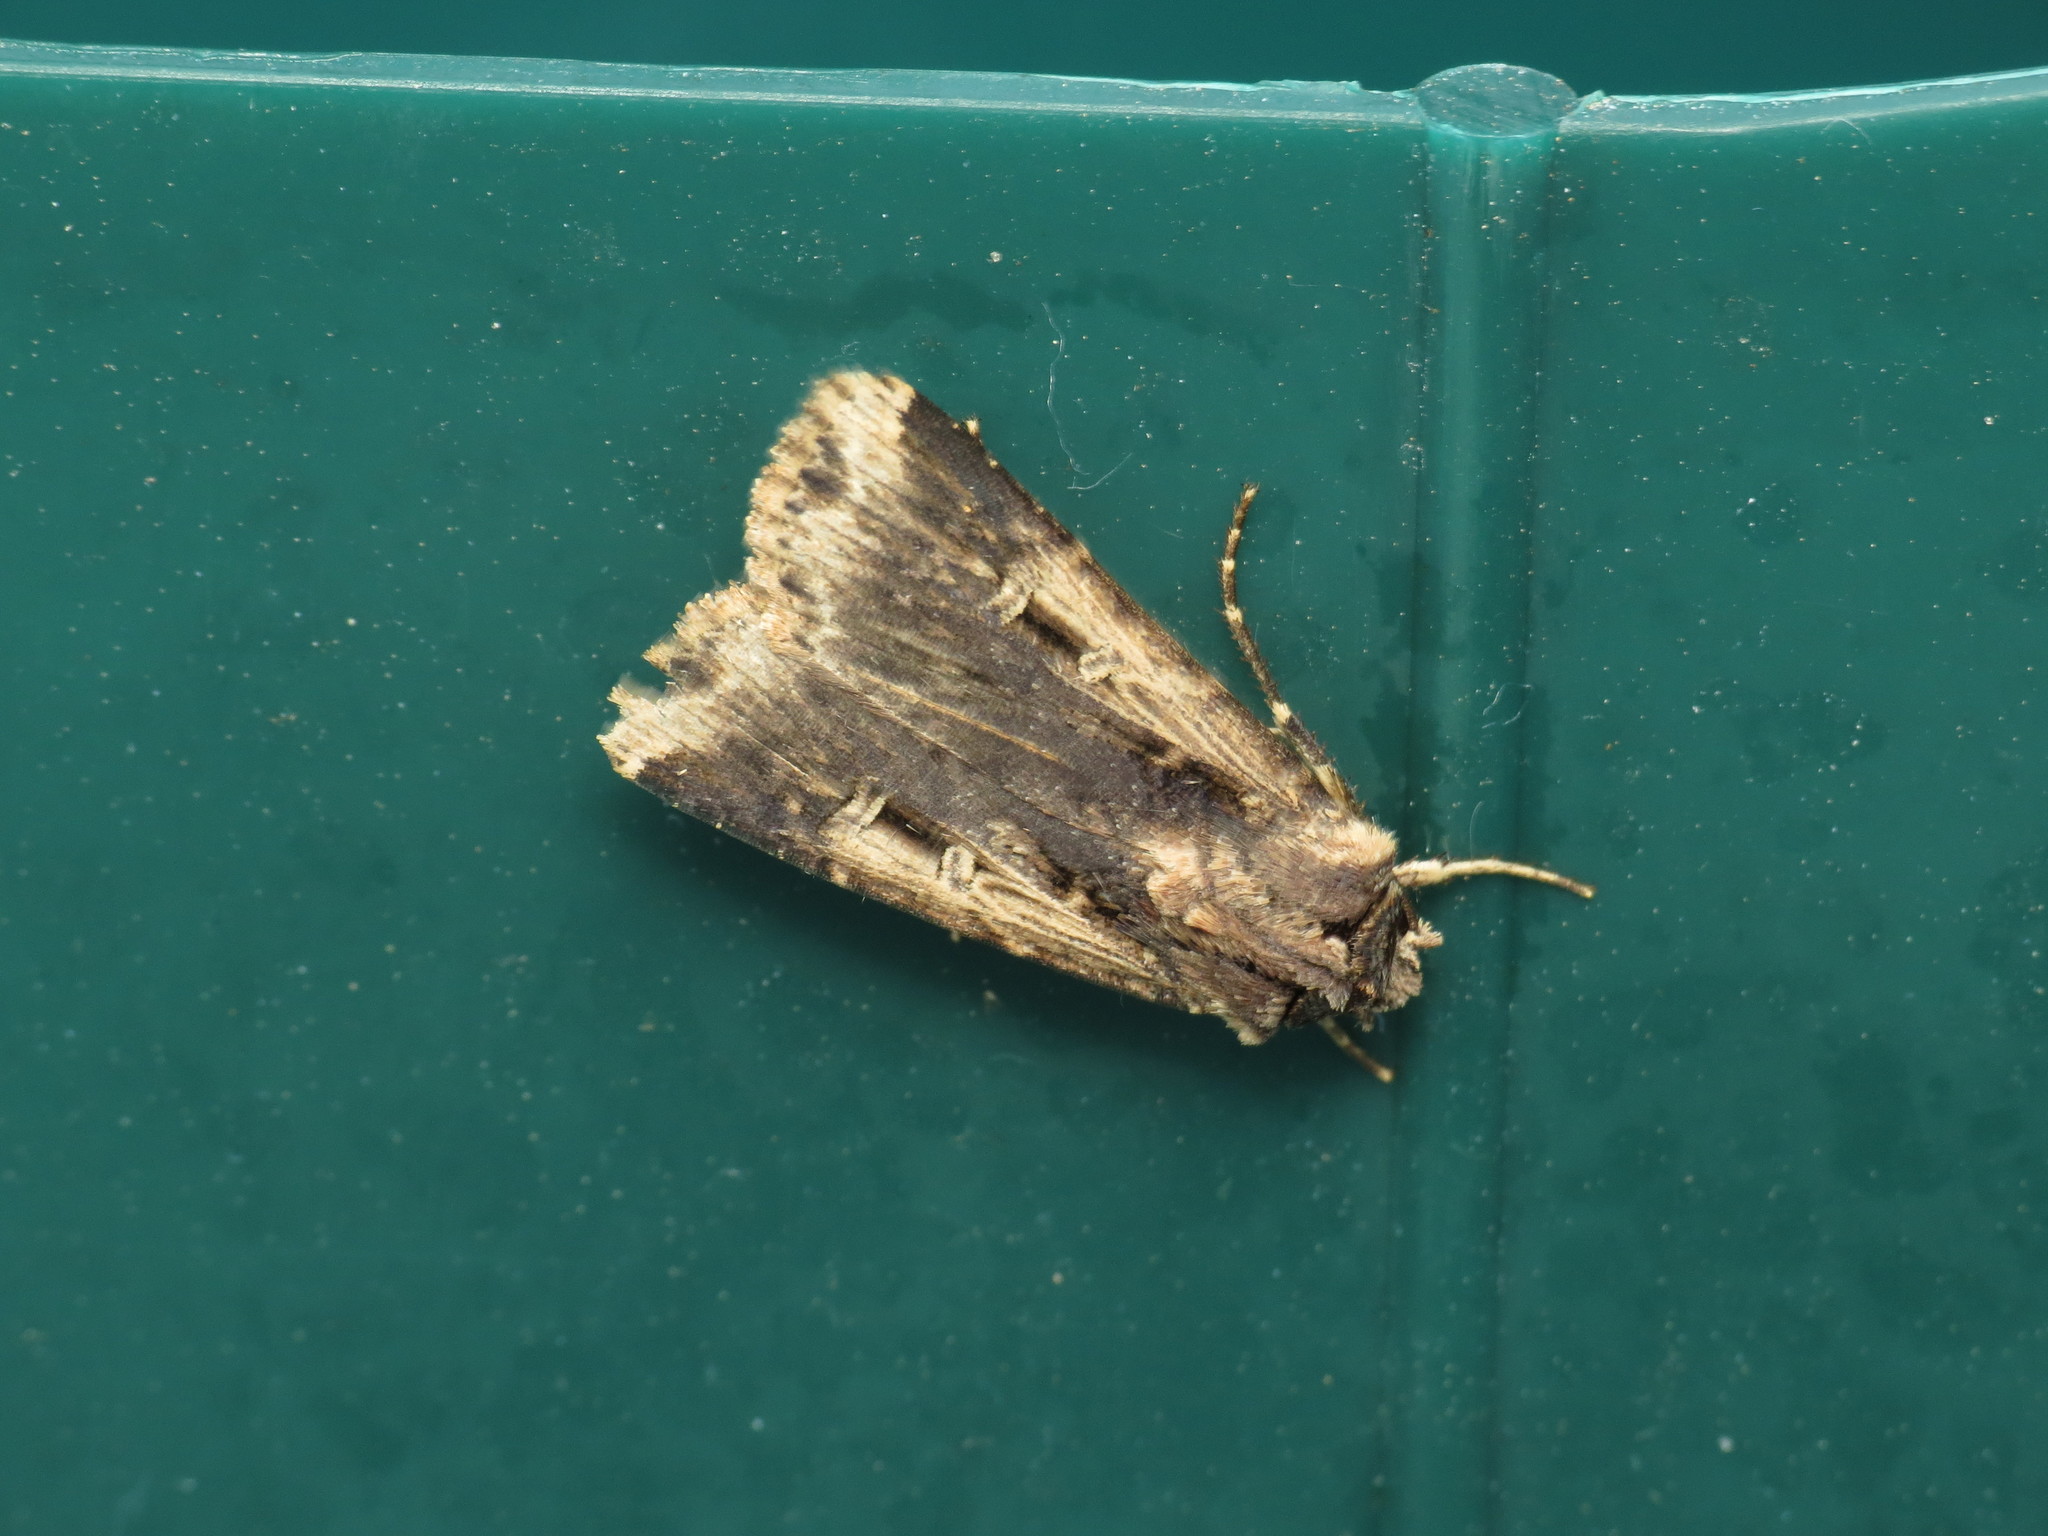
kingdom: Animalia
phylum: Arthropoda
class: Insecta
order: Lepidoptera
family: Noctuidae
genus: Feltia
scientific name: Feltia subterranea
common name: Granulate cutworm
